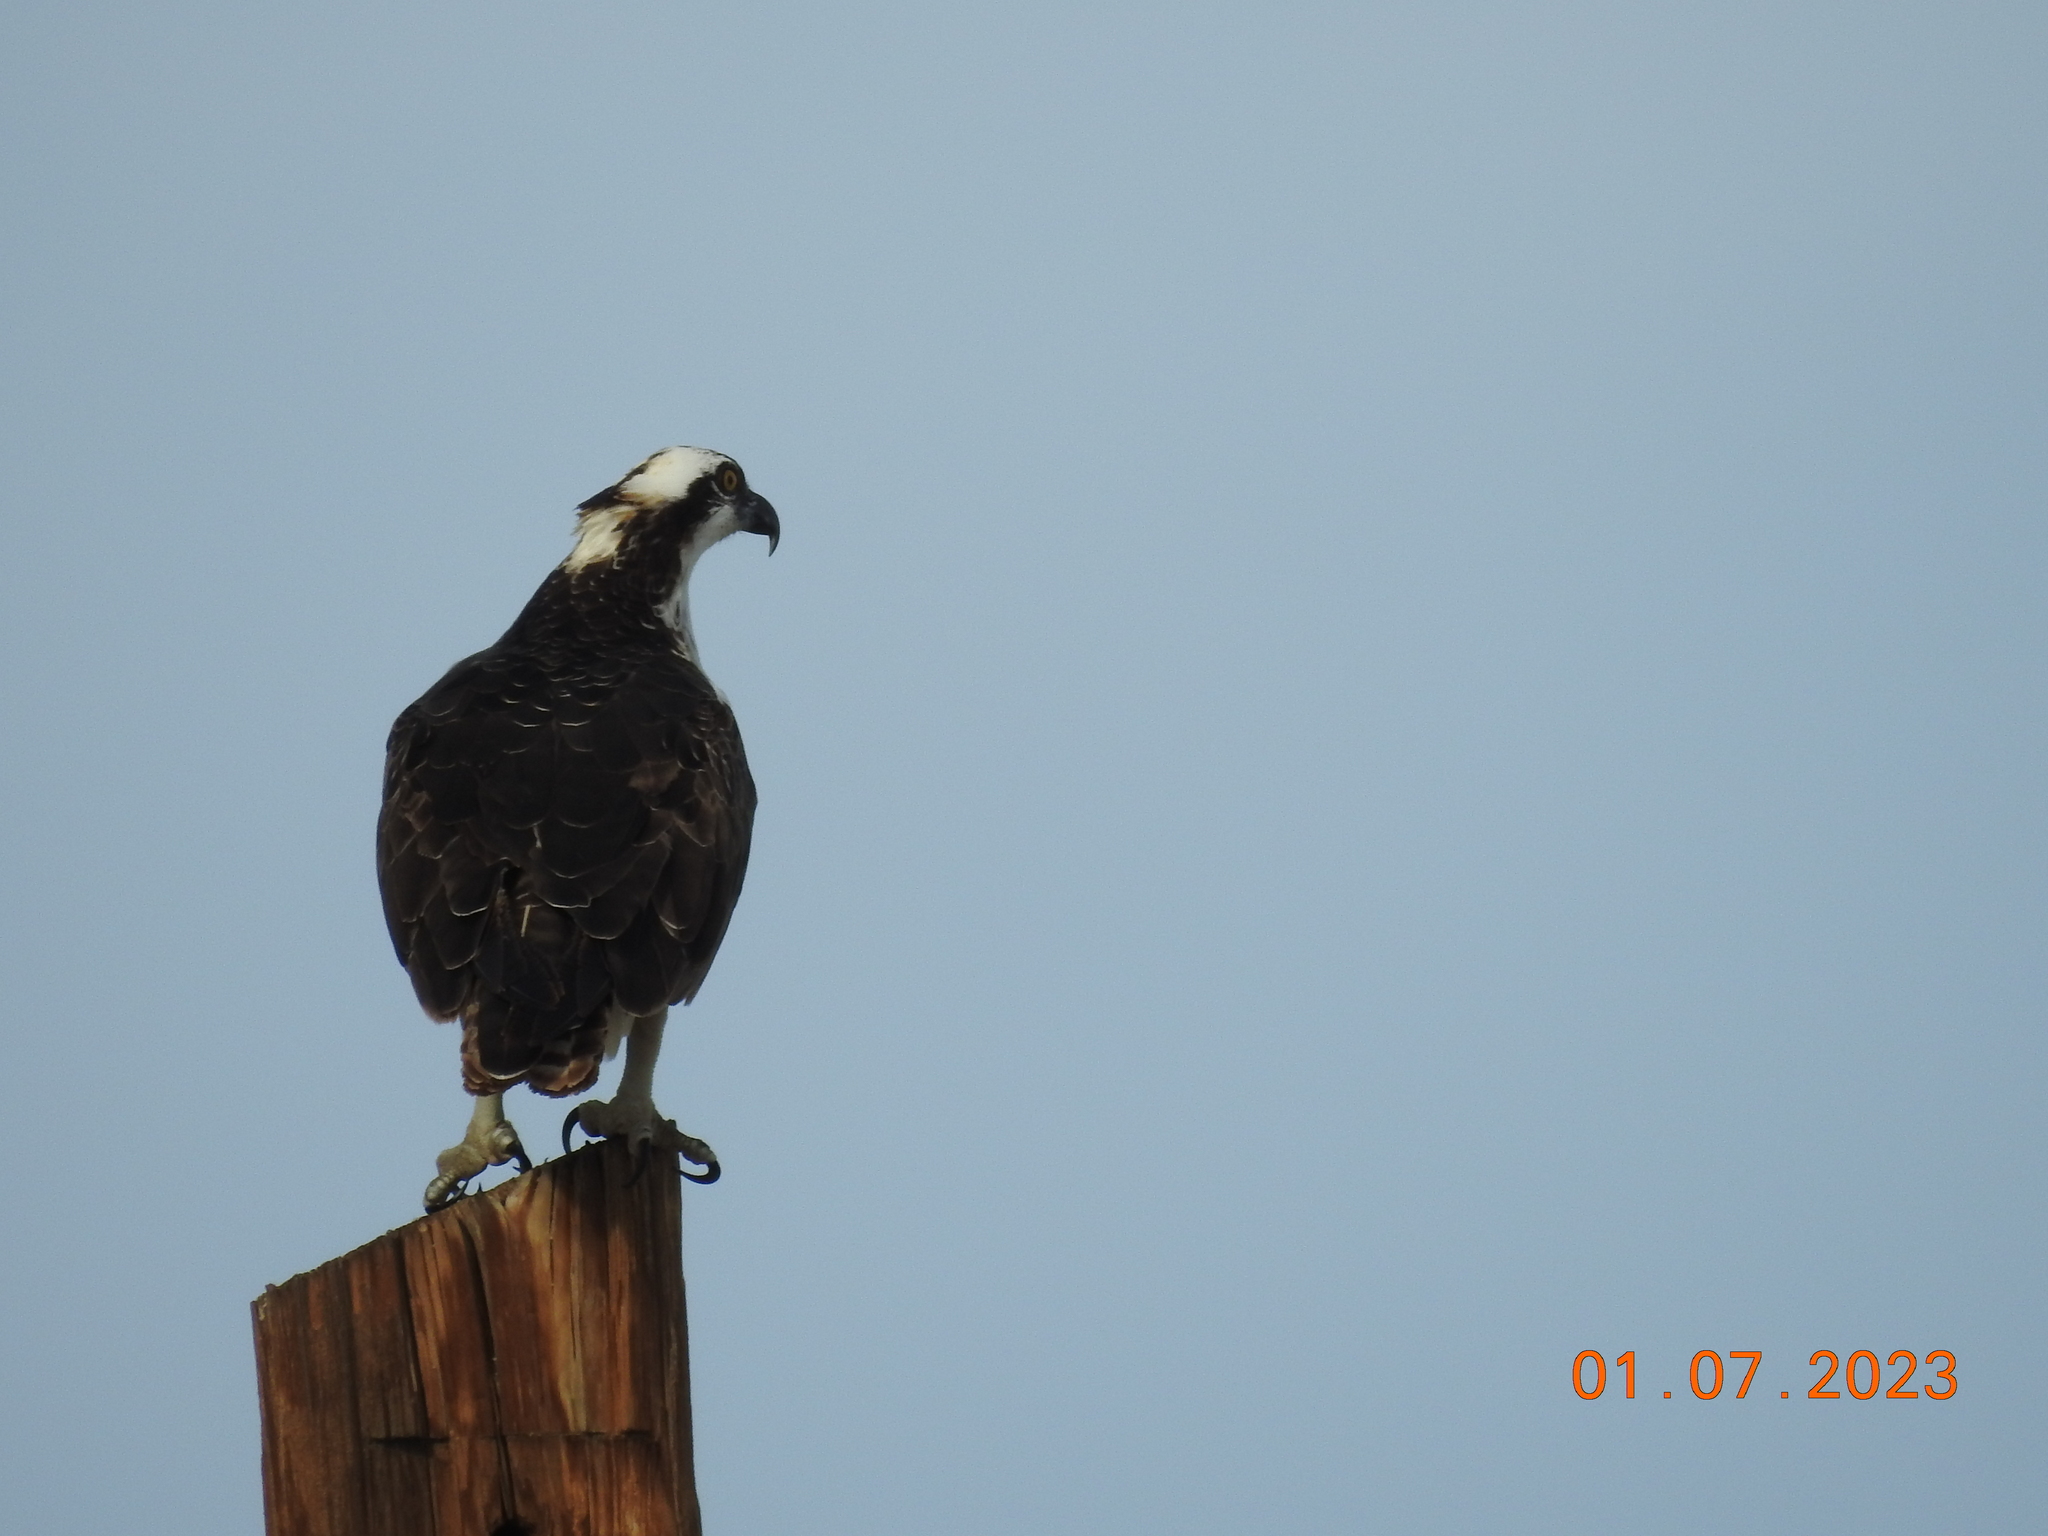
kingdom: Animalia
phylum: Chordata
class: Aves
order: Accipitriformes
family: Pandionidae
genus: Pandion
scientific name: Pandion haliaetus
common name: Osprey
